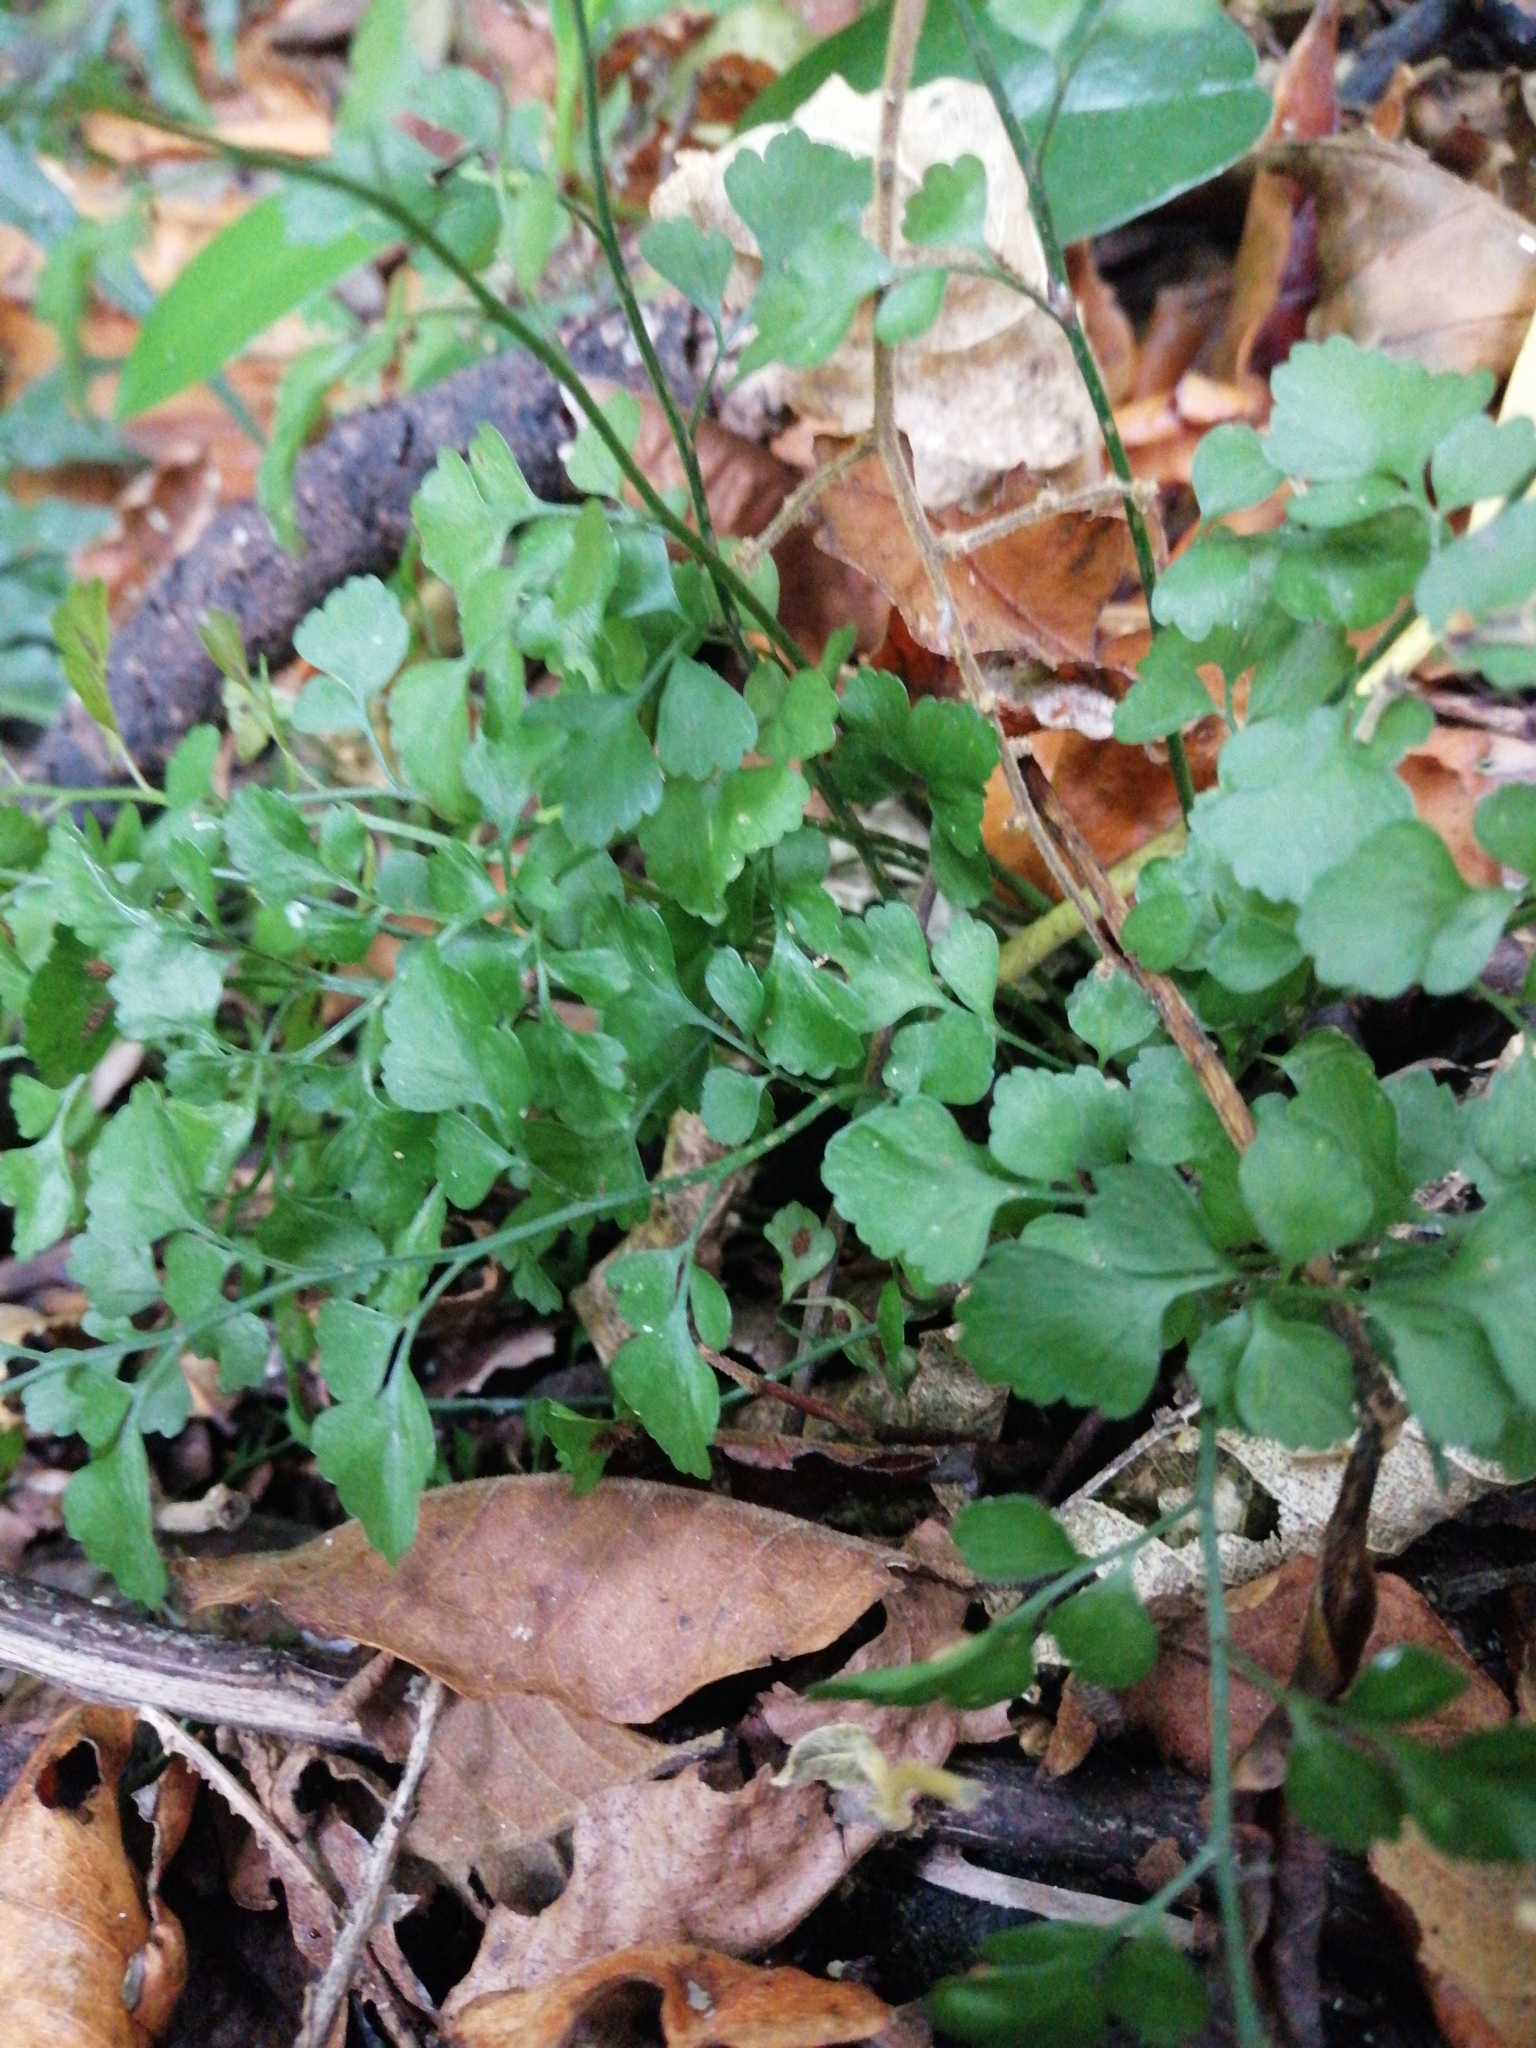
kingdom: Plantae
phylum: Tracheophyta
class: Polypodiopsida
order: Polypodiales
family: Aspleniaceae
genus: Asplenium
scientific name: Asplenium hookerianum
